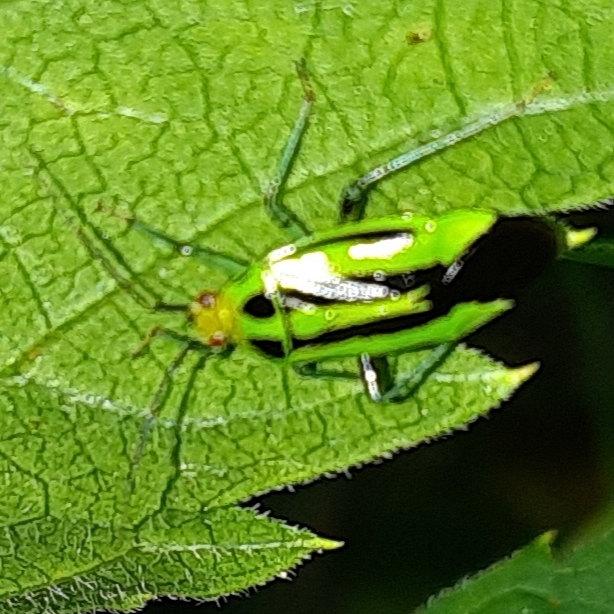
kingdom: Animalia
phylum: Arthropoda
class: Insecta
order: Hemiptera
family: Miridae
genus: Poecilocapsus
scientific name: Poecilocapsus lineatus
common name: Four-lined plant bug
